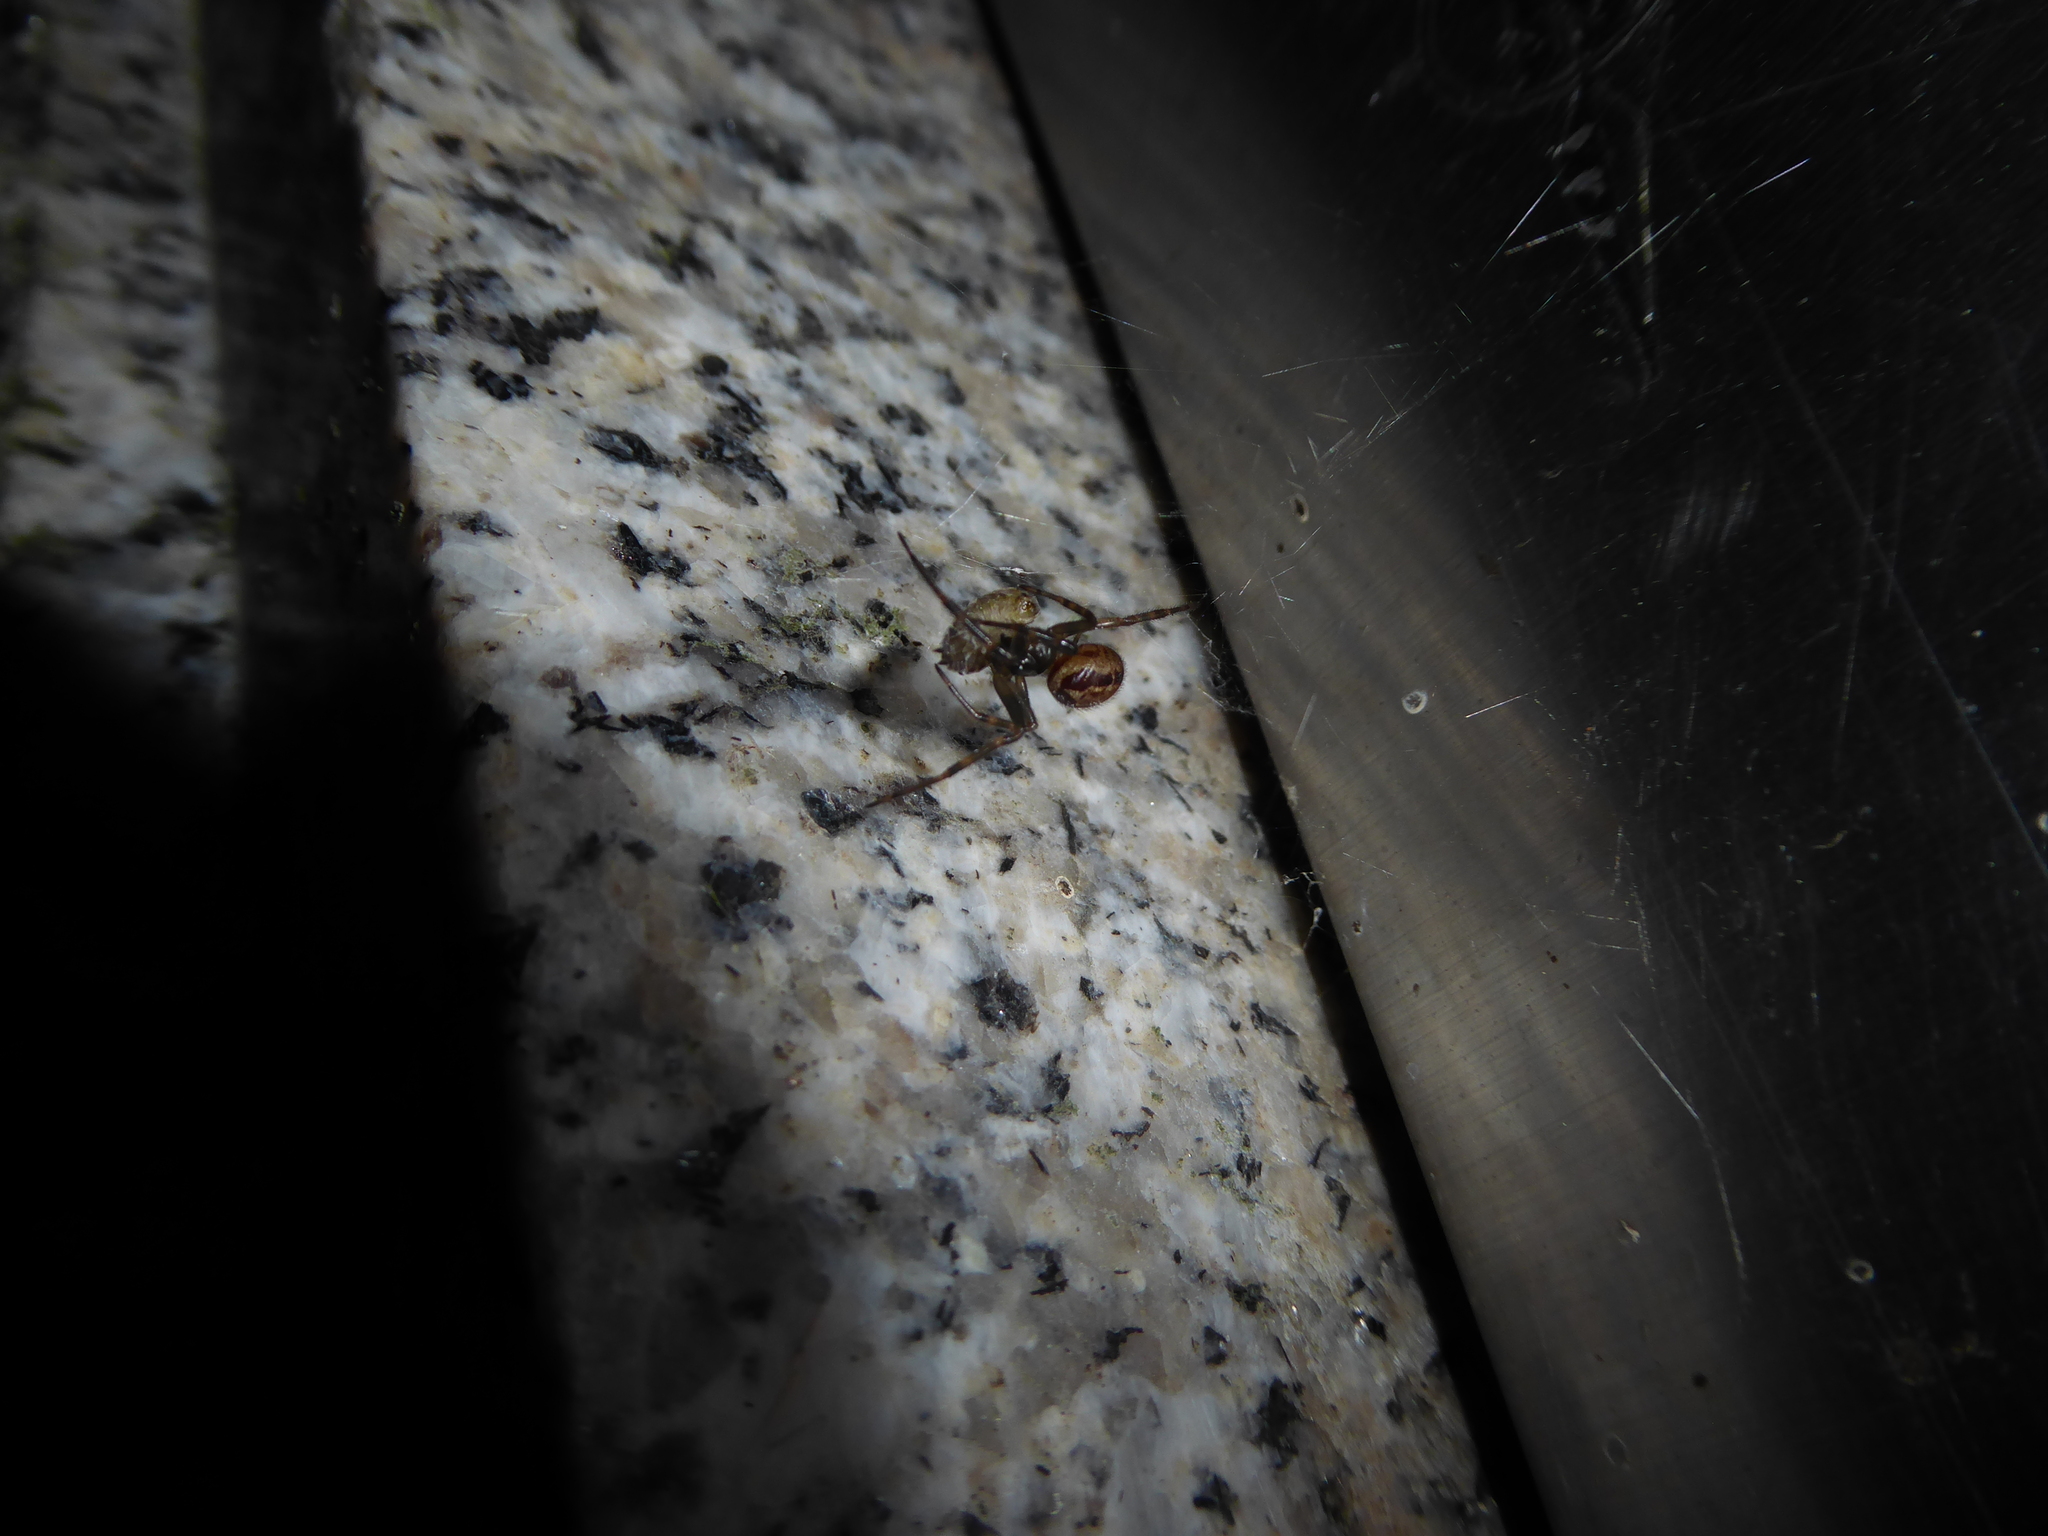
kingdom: Animalia
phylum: Arthropoda
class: Arachnida
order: Araneae
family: Theridiidae
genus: Steatoda
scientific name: Steatoda nobilis
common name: Cobweb weaver
